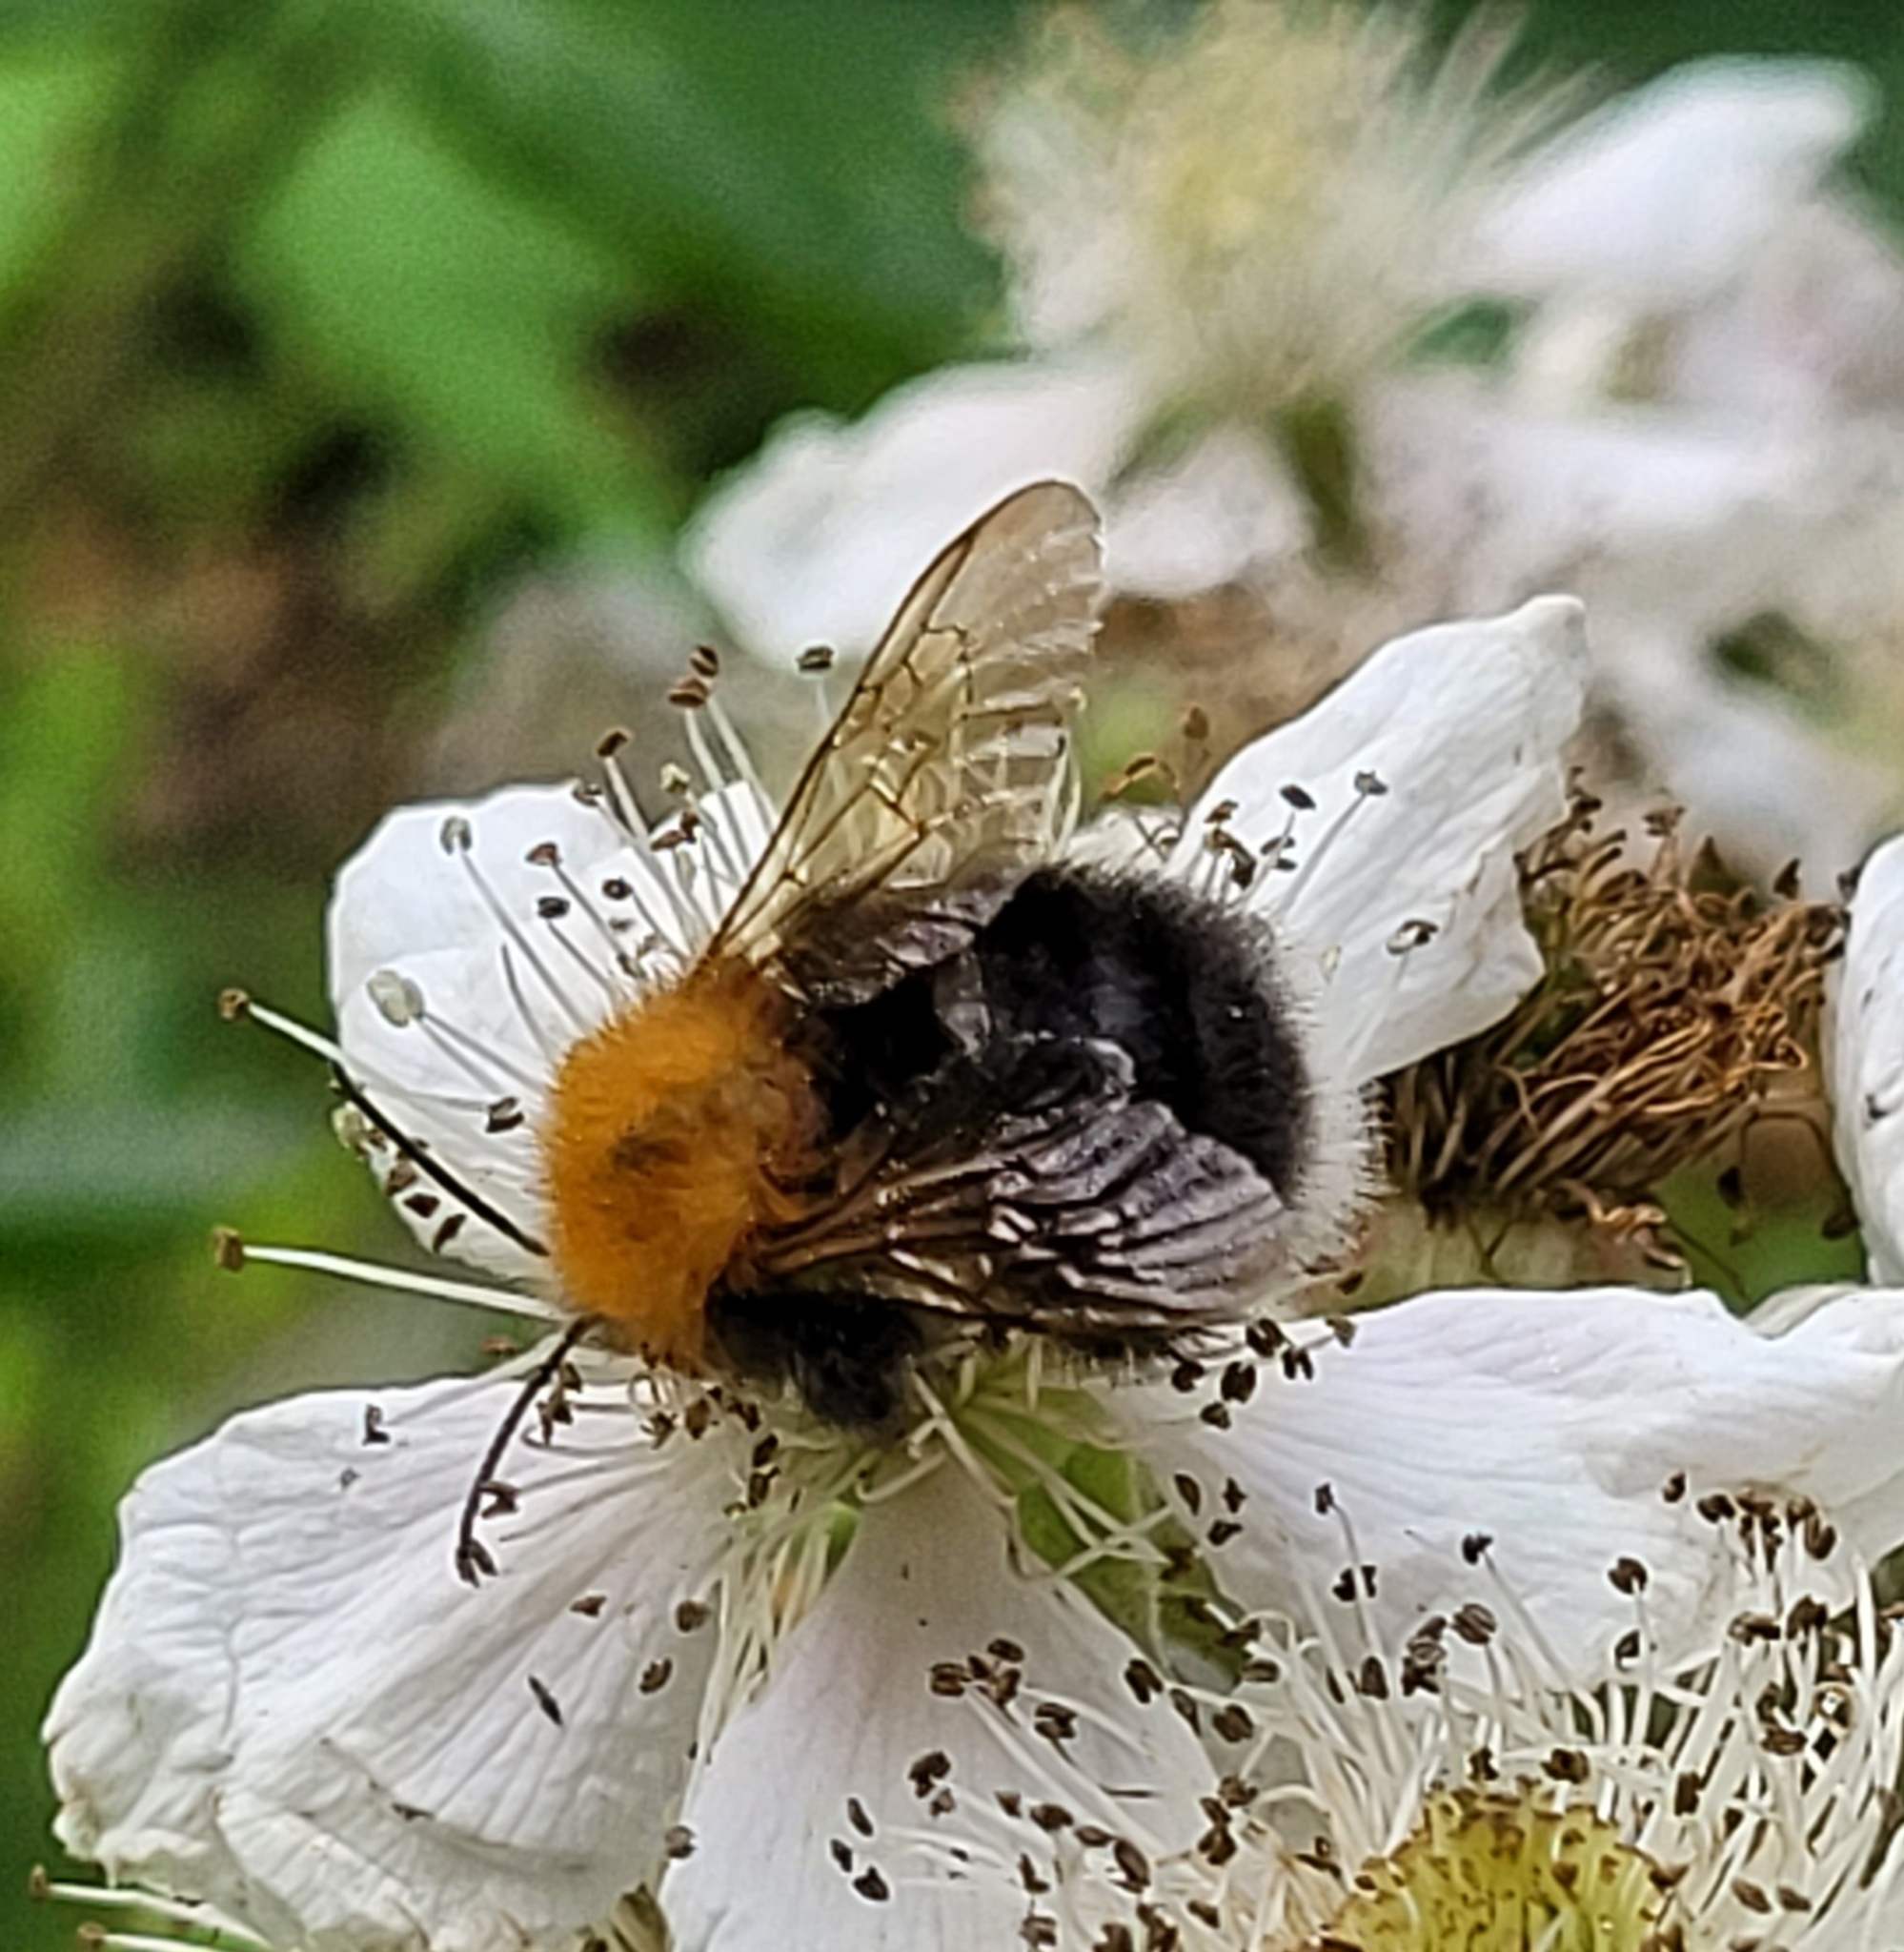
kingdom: Animalia
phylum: Arthropoda
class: Insecta
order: Hymenoptera
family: Apidae
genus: Bombus
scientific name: Bombus hypnorum
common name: New garden bumblebee
